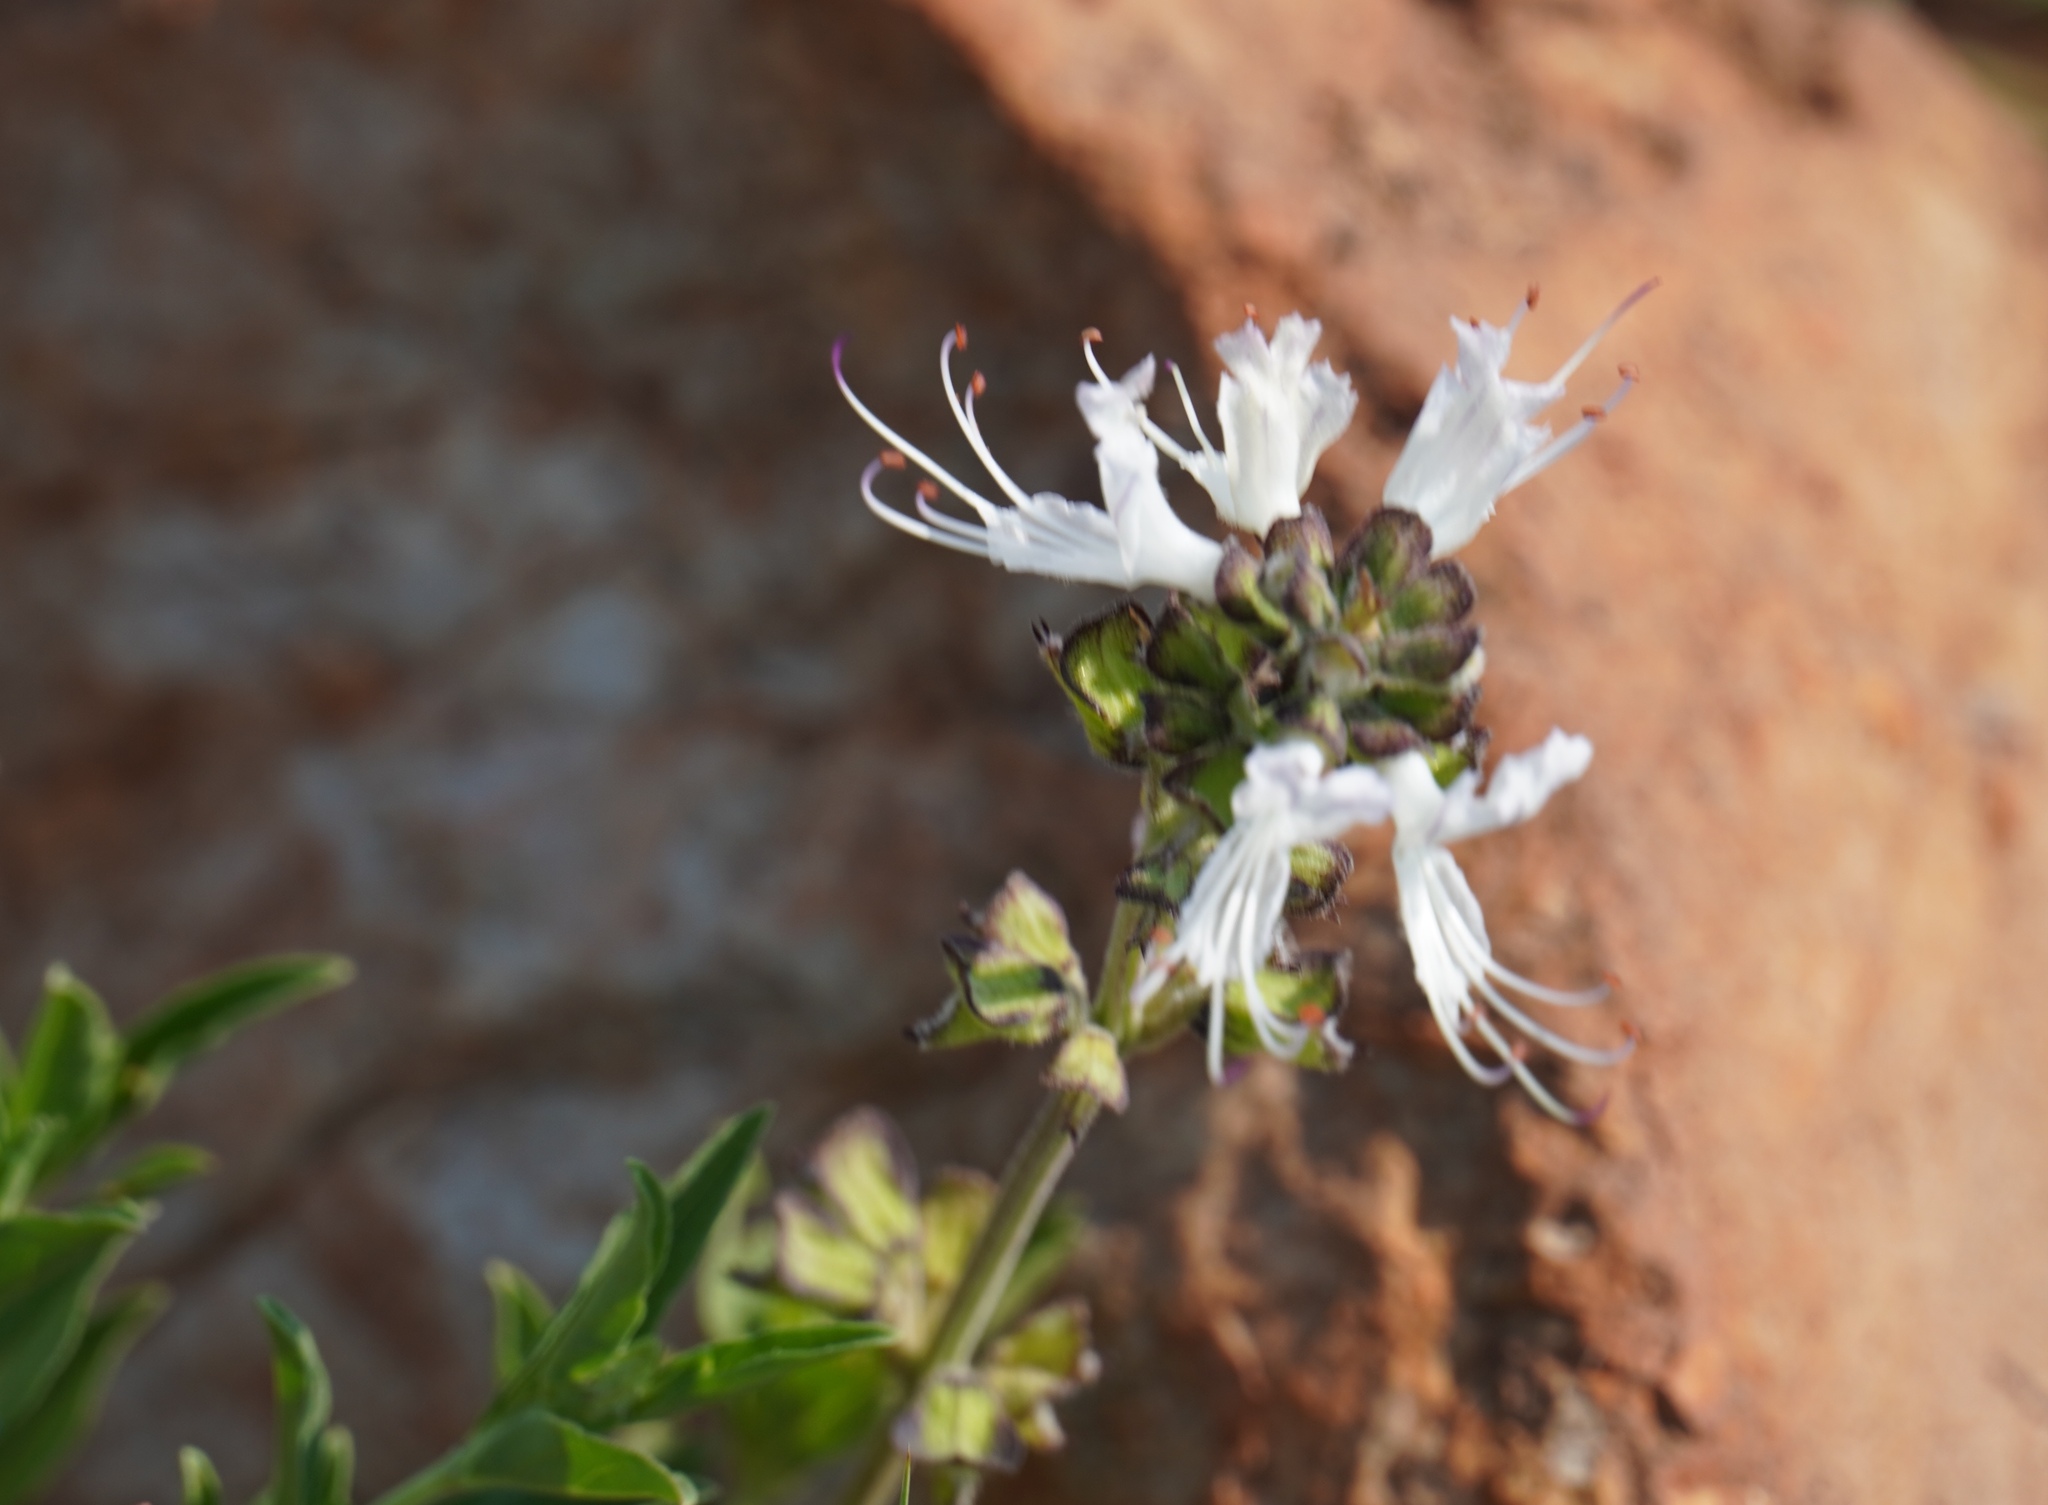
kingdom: Plantae
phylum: Tracheophyta
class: Magnoliopsida
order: Lamiales
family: Lamiaceae
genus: Ocimum
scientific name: Ocimum obovatum
